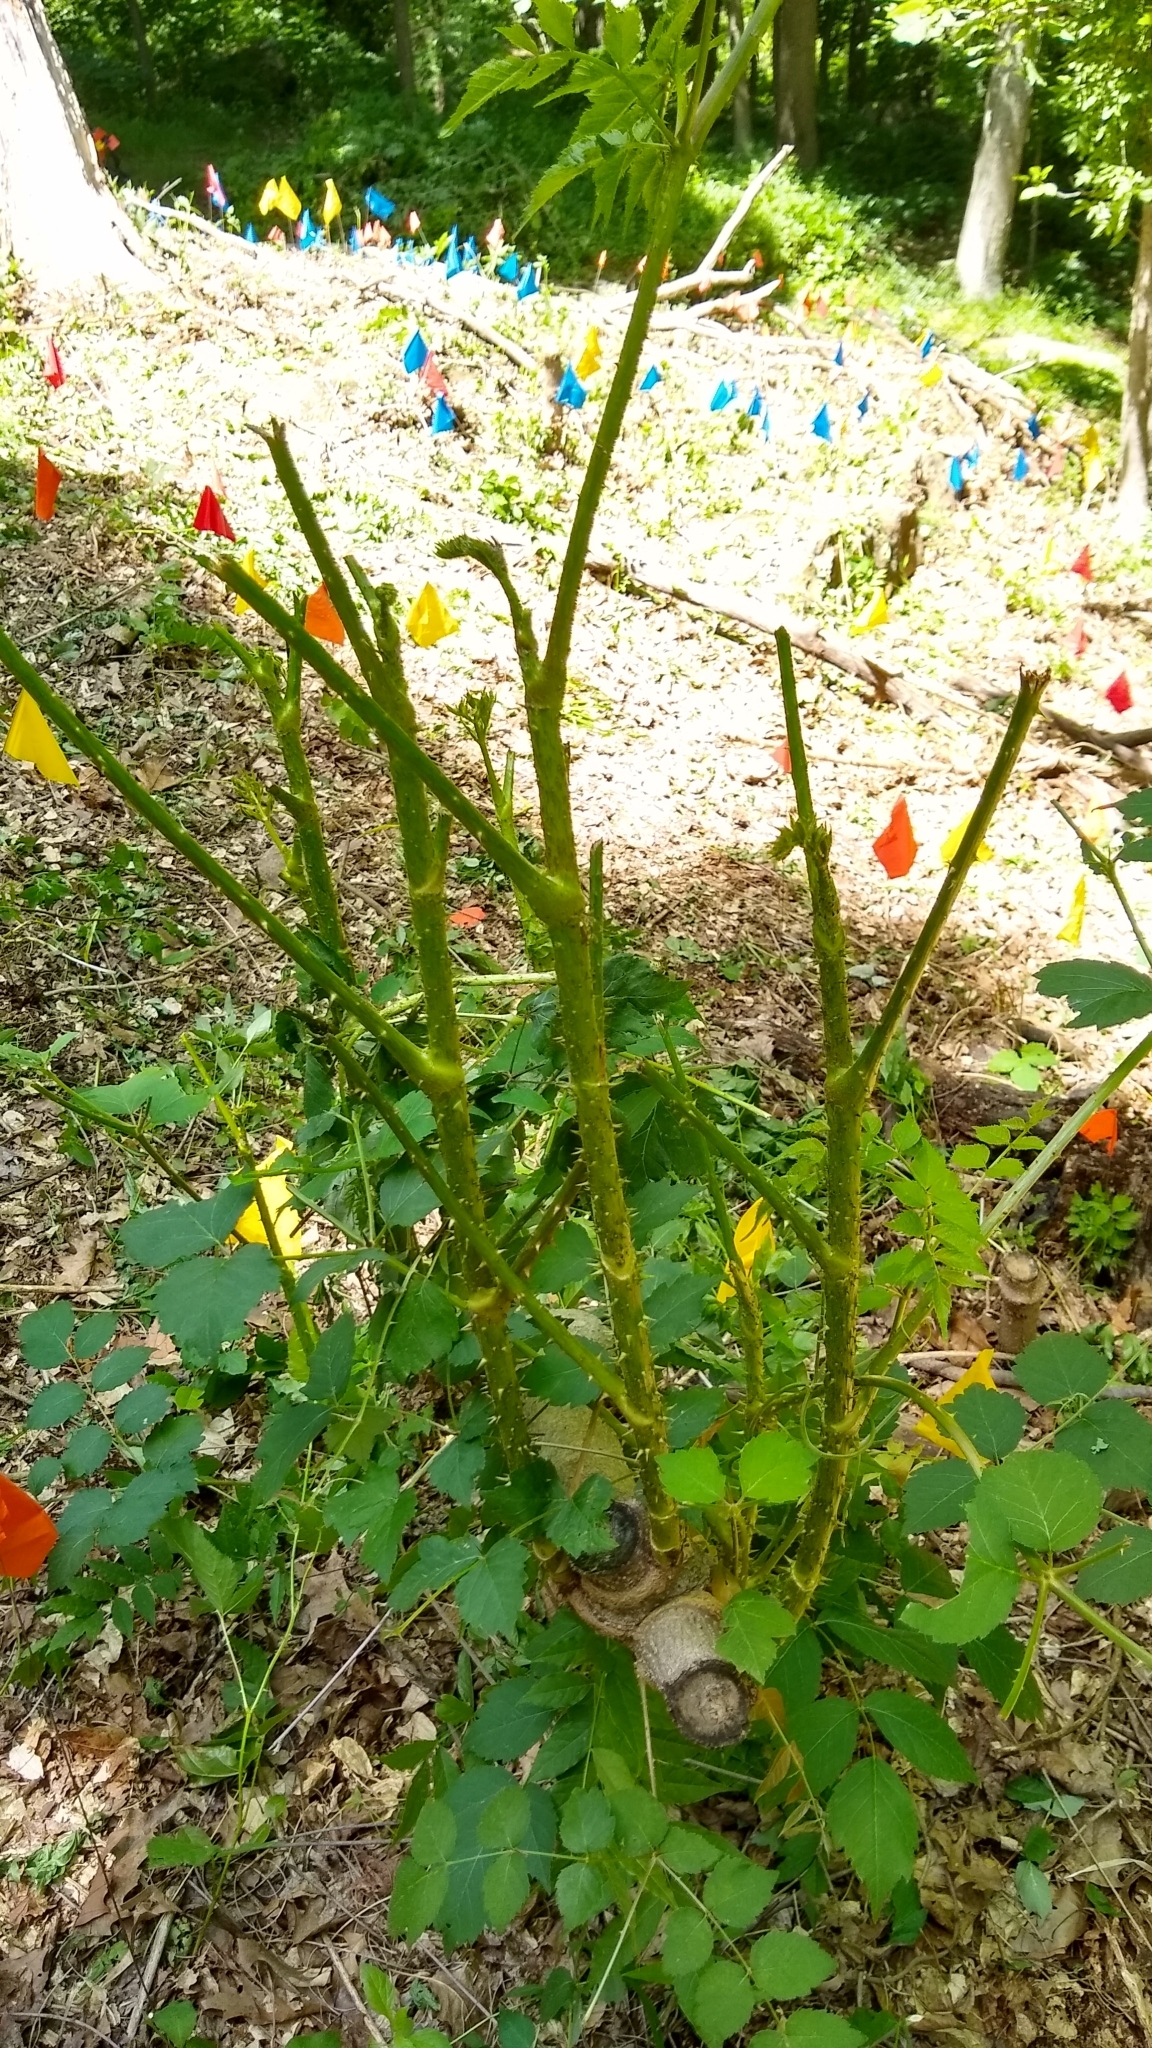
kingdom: Plantae
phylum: Tracheophyta
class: Magnoliopsida
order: Apiales
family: Araliaceae
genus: Aralia
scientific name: Aralia elata
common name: Japanese angelica-tree
